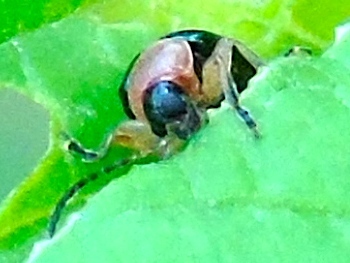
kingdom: Animalia
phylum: Arthropoda
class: Insecta
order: Coleoptera
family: Chrysomelidae
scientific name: Chrysomelidae
